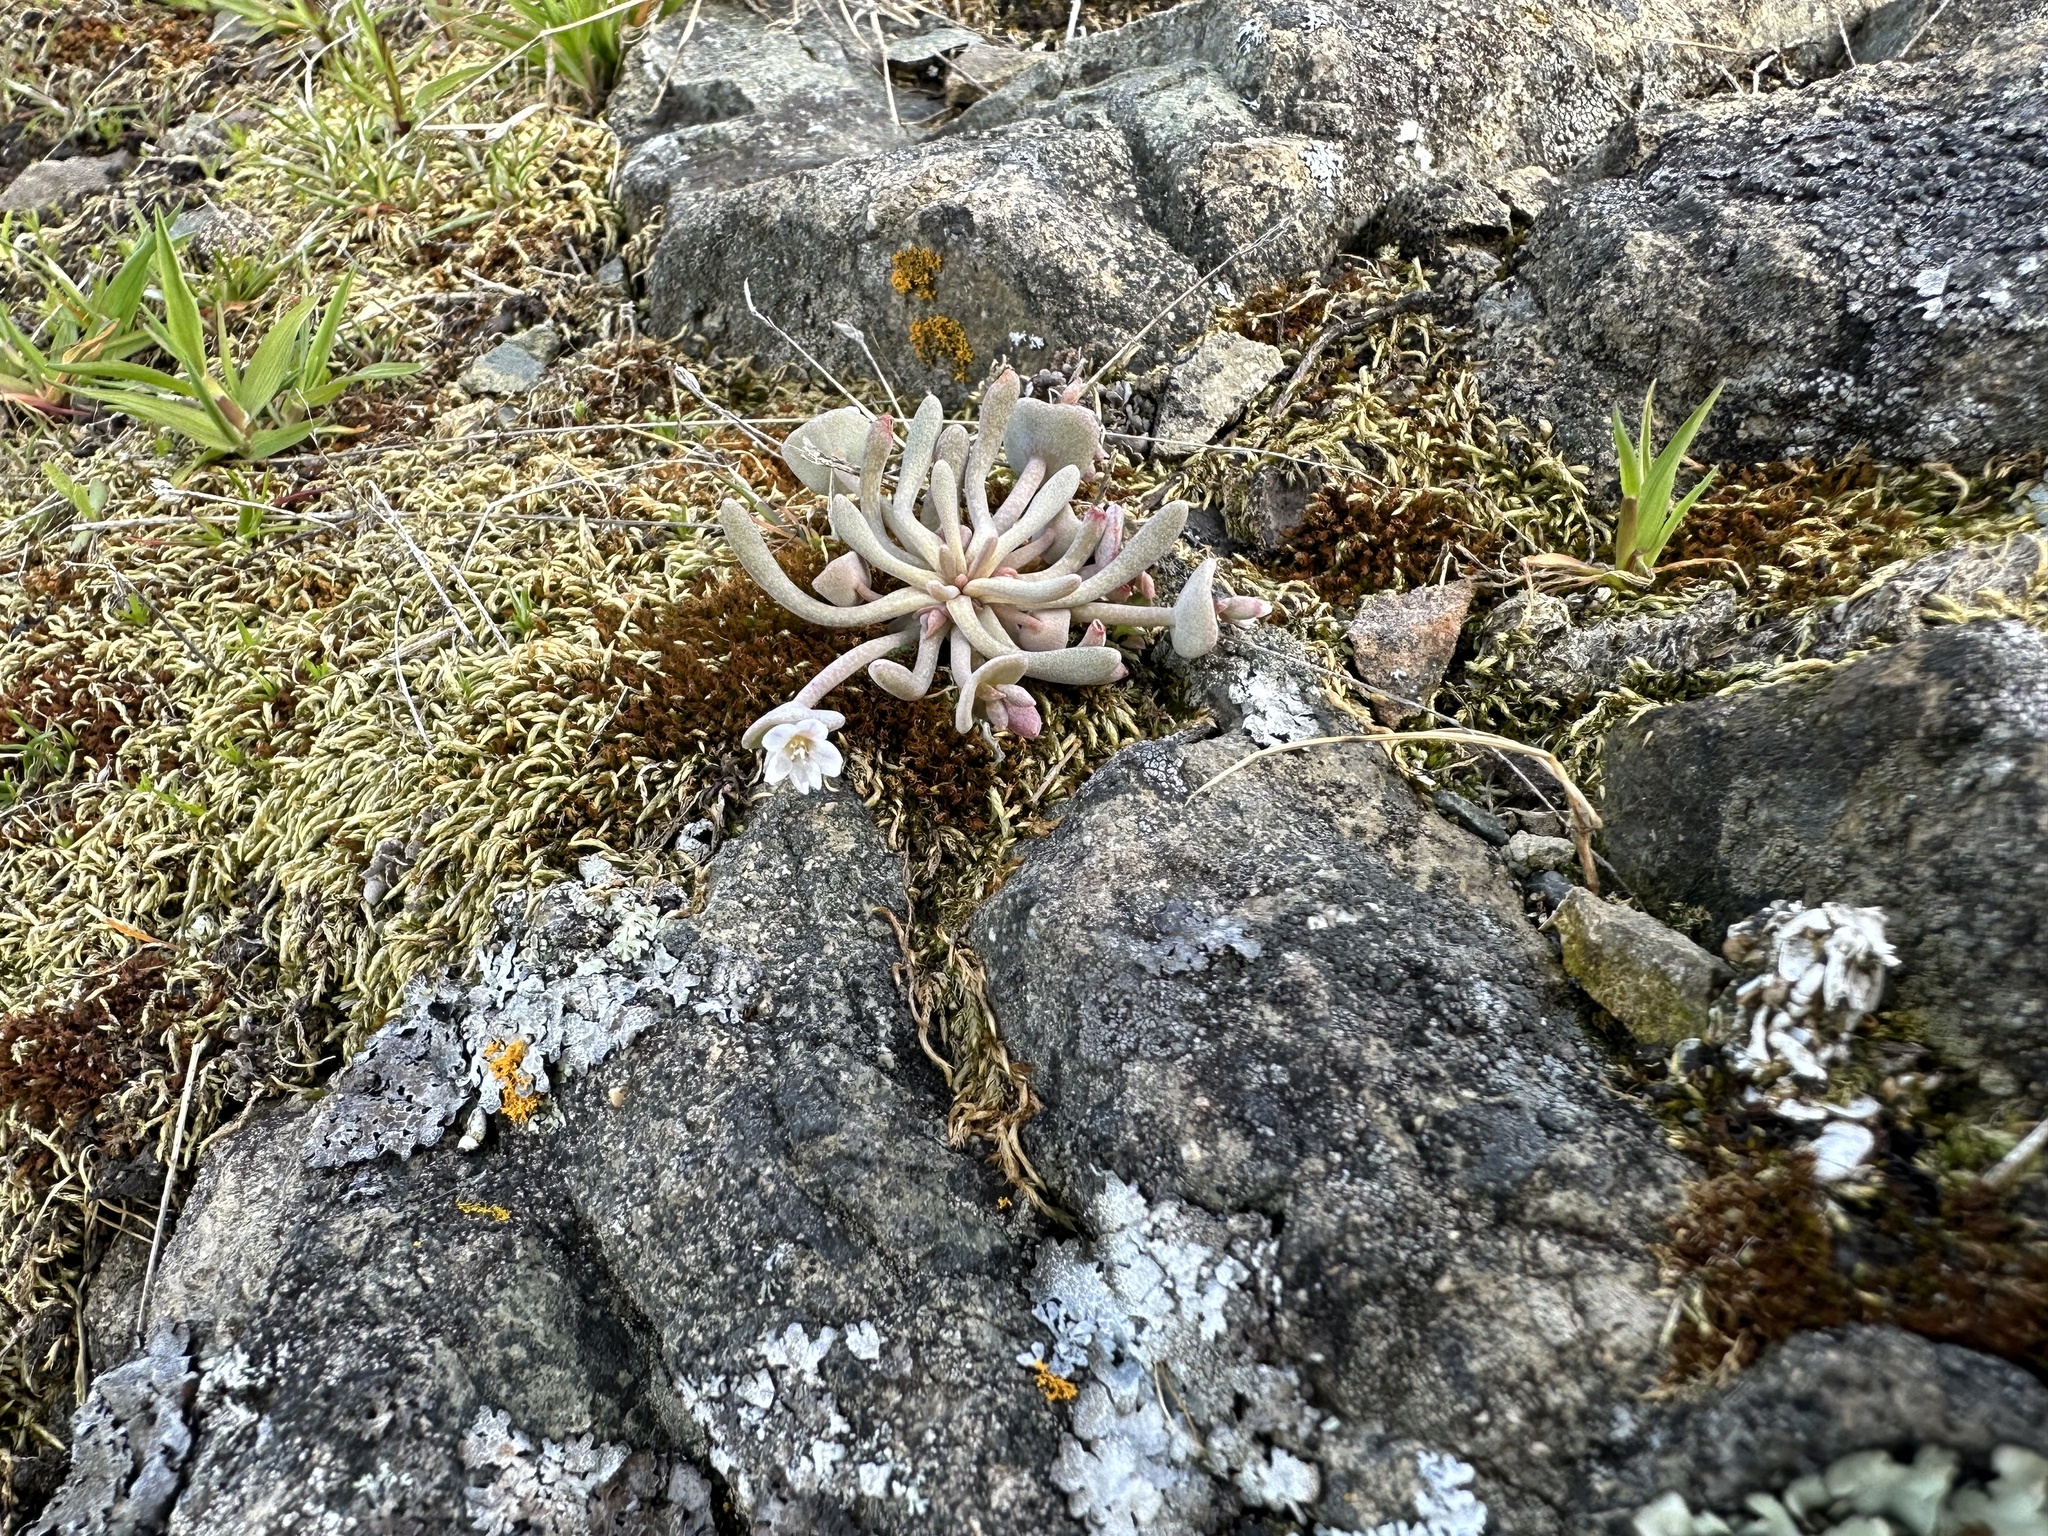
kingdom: Plantae
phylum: Tracheophyta
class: Magnoliopsida
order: Caryophyllales
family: Montiaceae
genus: Claytonia
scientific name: Claytonia exigua
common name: Pale spring beauty
